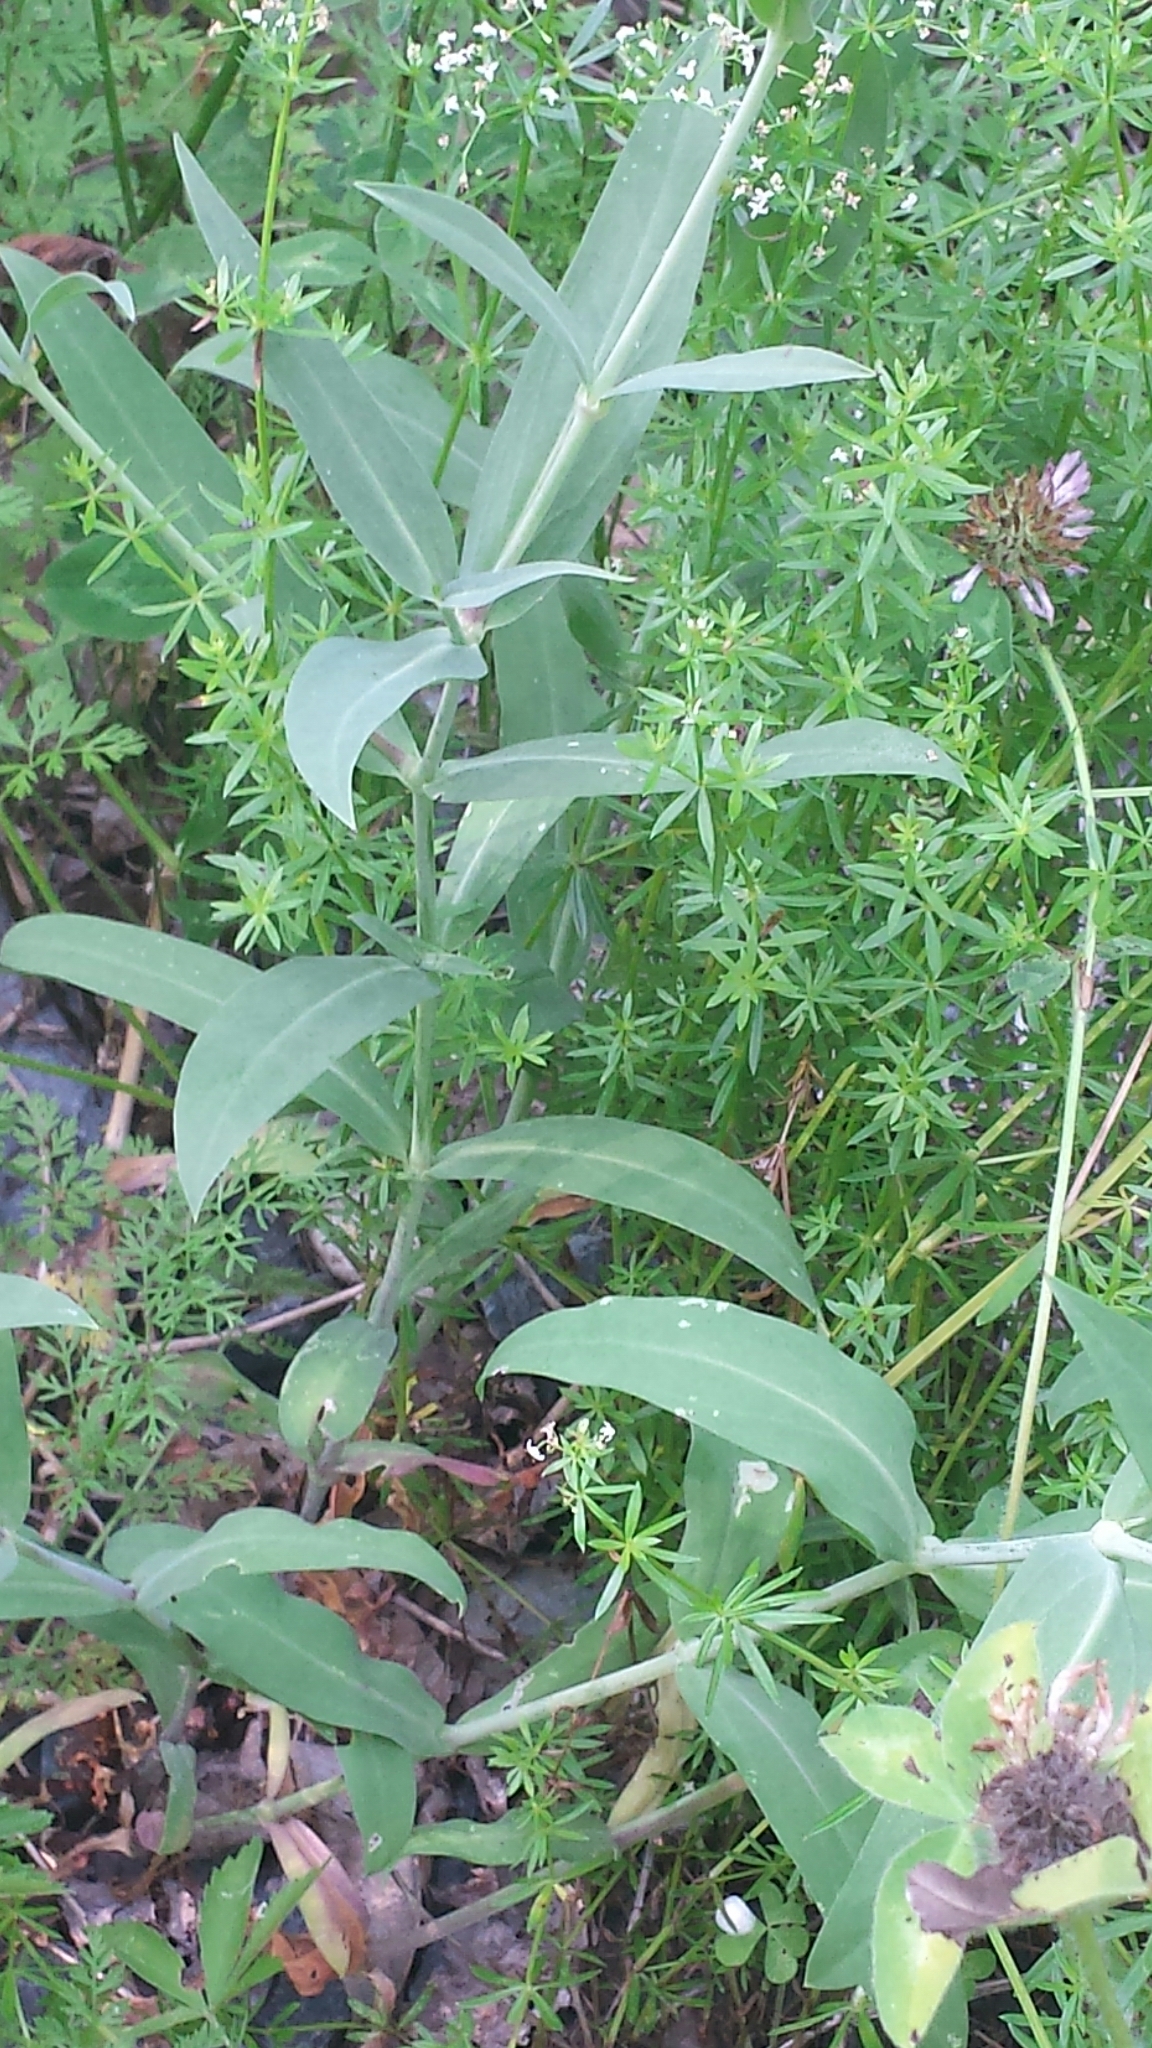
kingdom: Plantae
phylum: Tracheophyta
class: Magnoliopsida
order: Caryophyllales
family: Caryophyllaceae
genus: Silene
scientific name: Silene vulgaris
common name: Bladder campion
